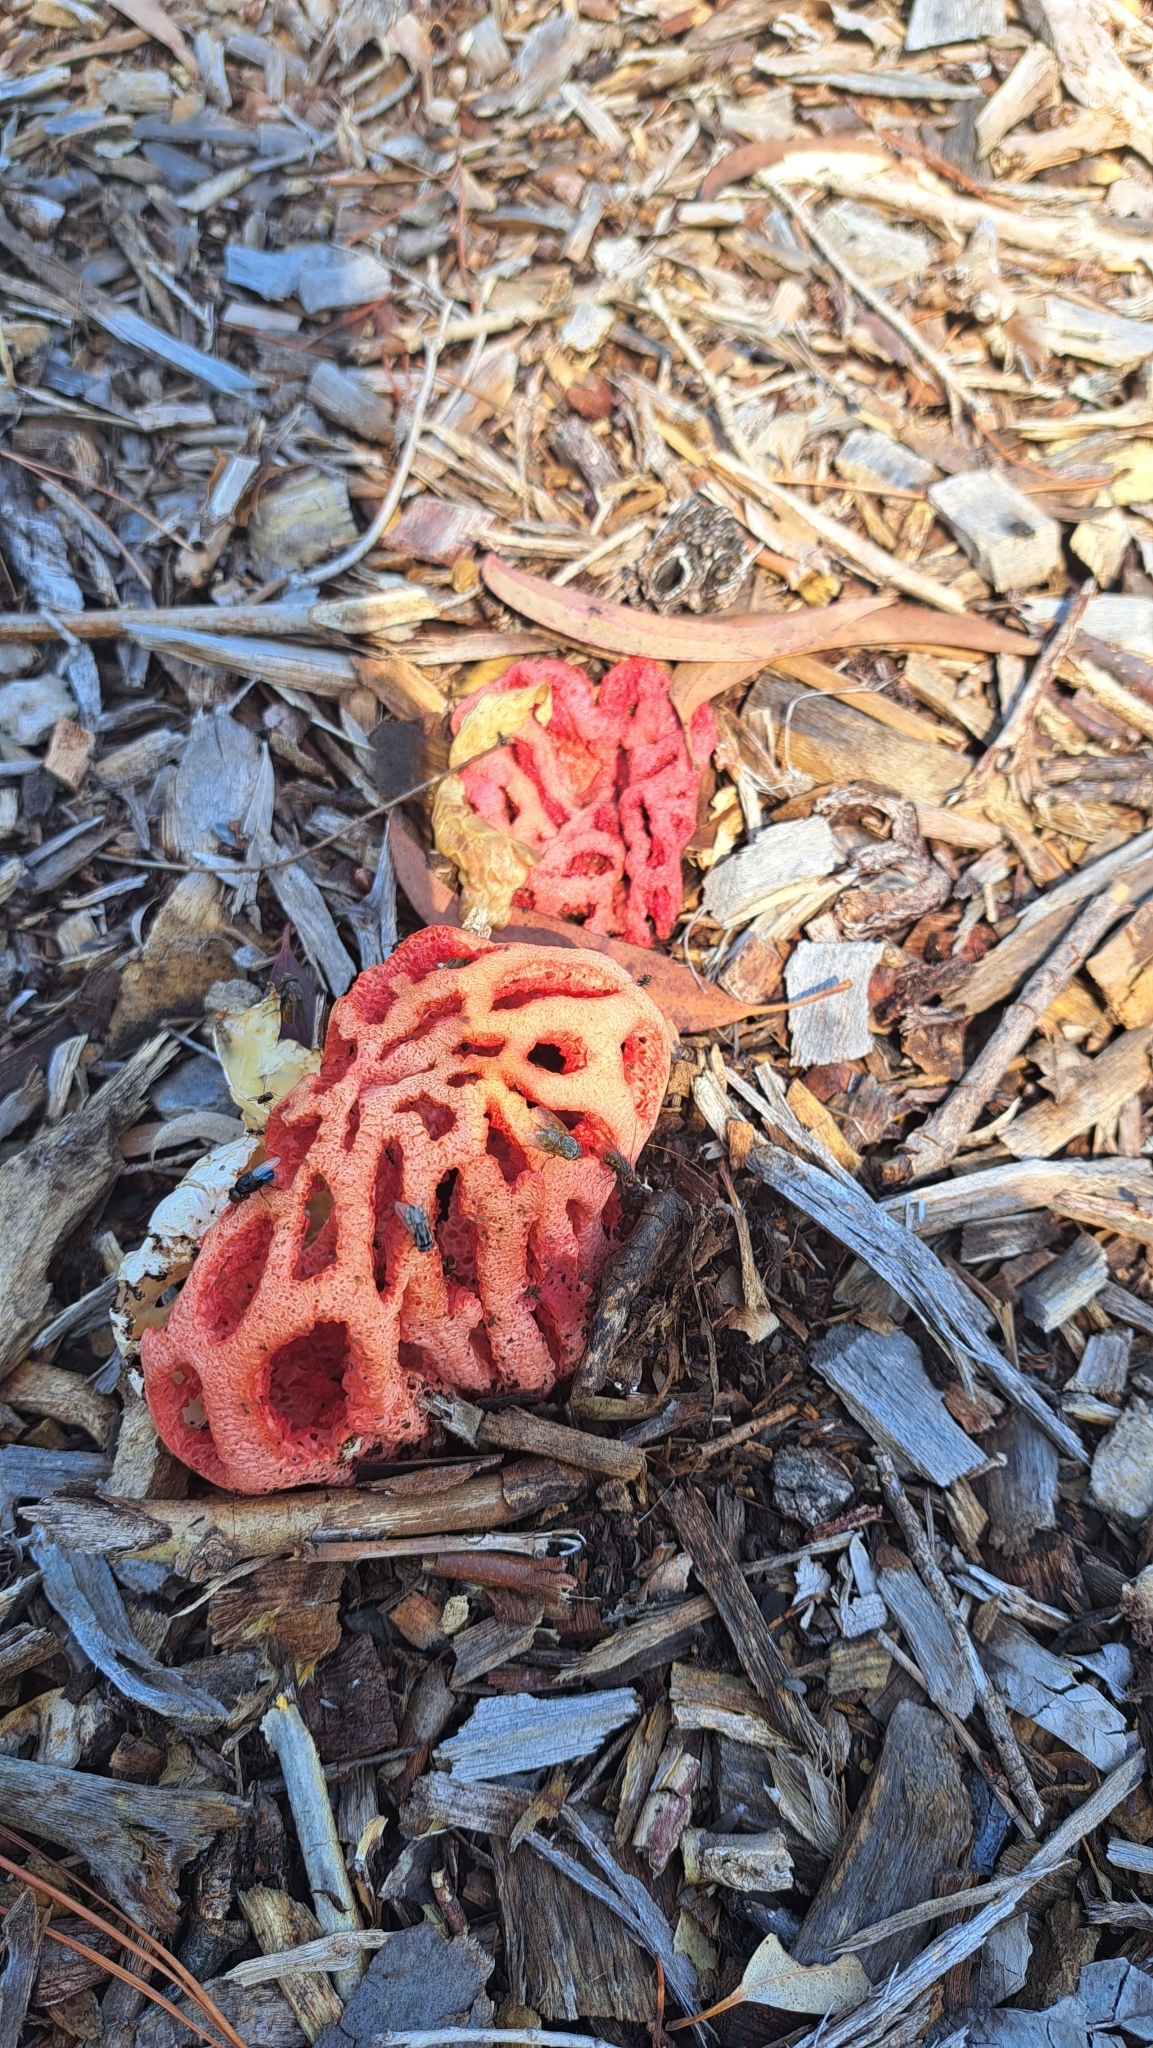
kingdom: Fungi
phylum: Basidiomycota
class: Agaricomycetes
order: Phallales
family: Phallaceae
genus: Clathrus
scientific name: Clathrus ruber
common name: Red cage
